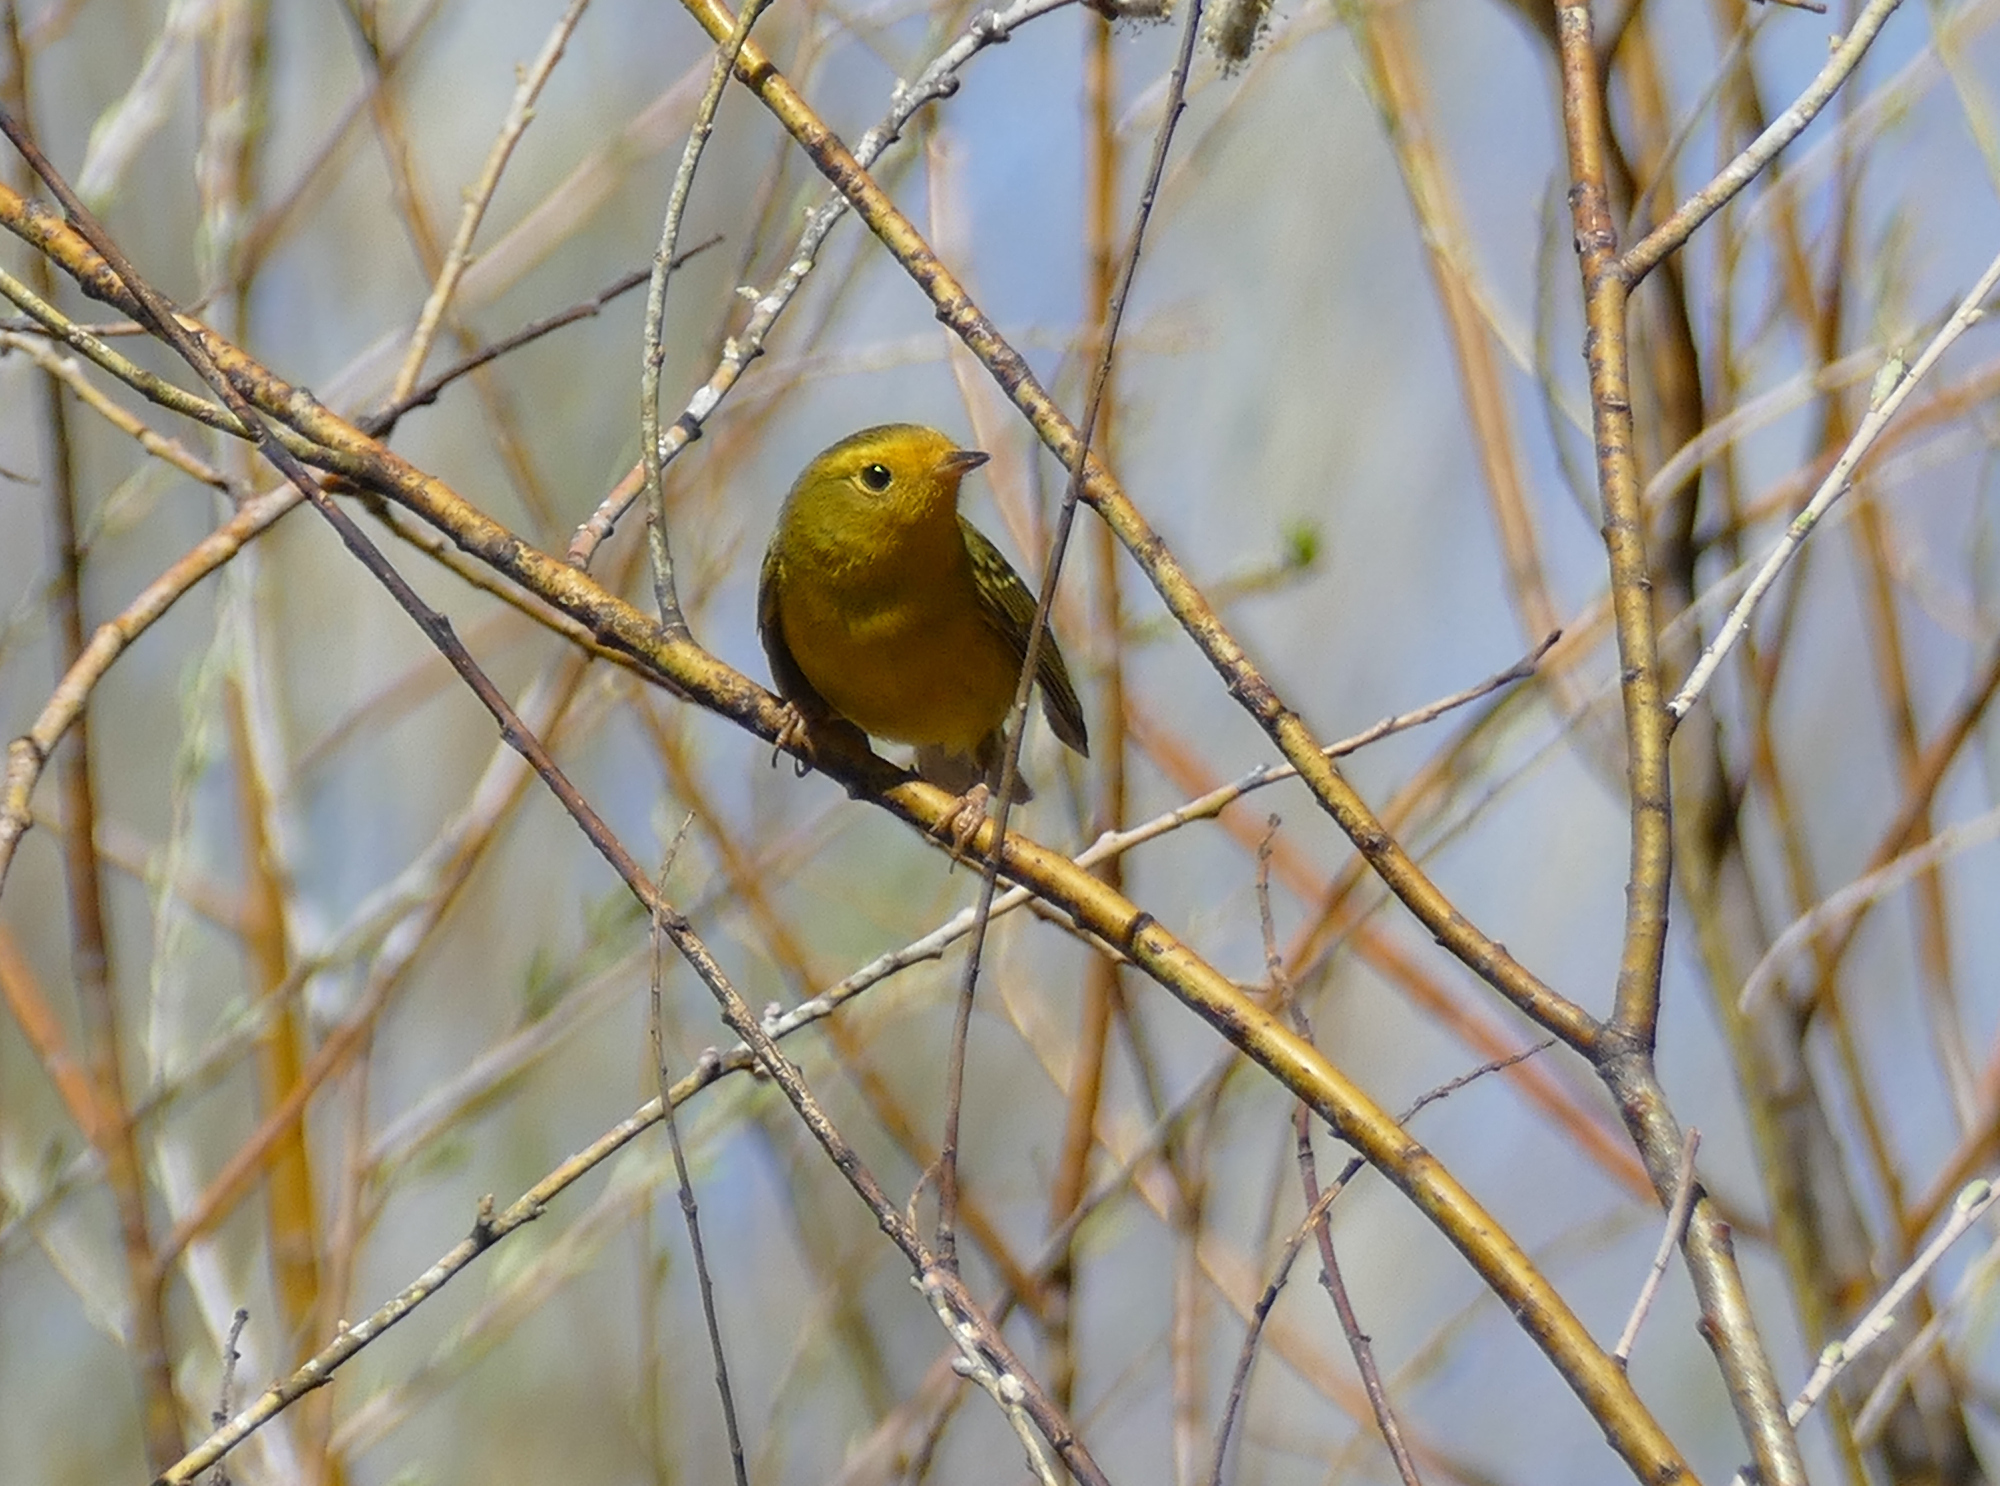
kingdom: Animalia
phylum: Chordata
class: Aves
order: Passeriformes
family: Parulidae
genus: Cardellina
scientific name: Cardellina pusilla
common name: Wilson's warbler
